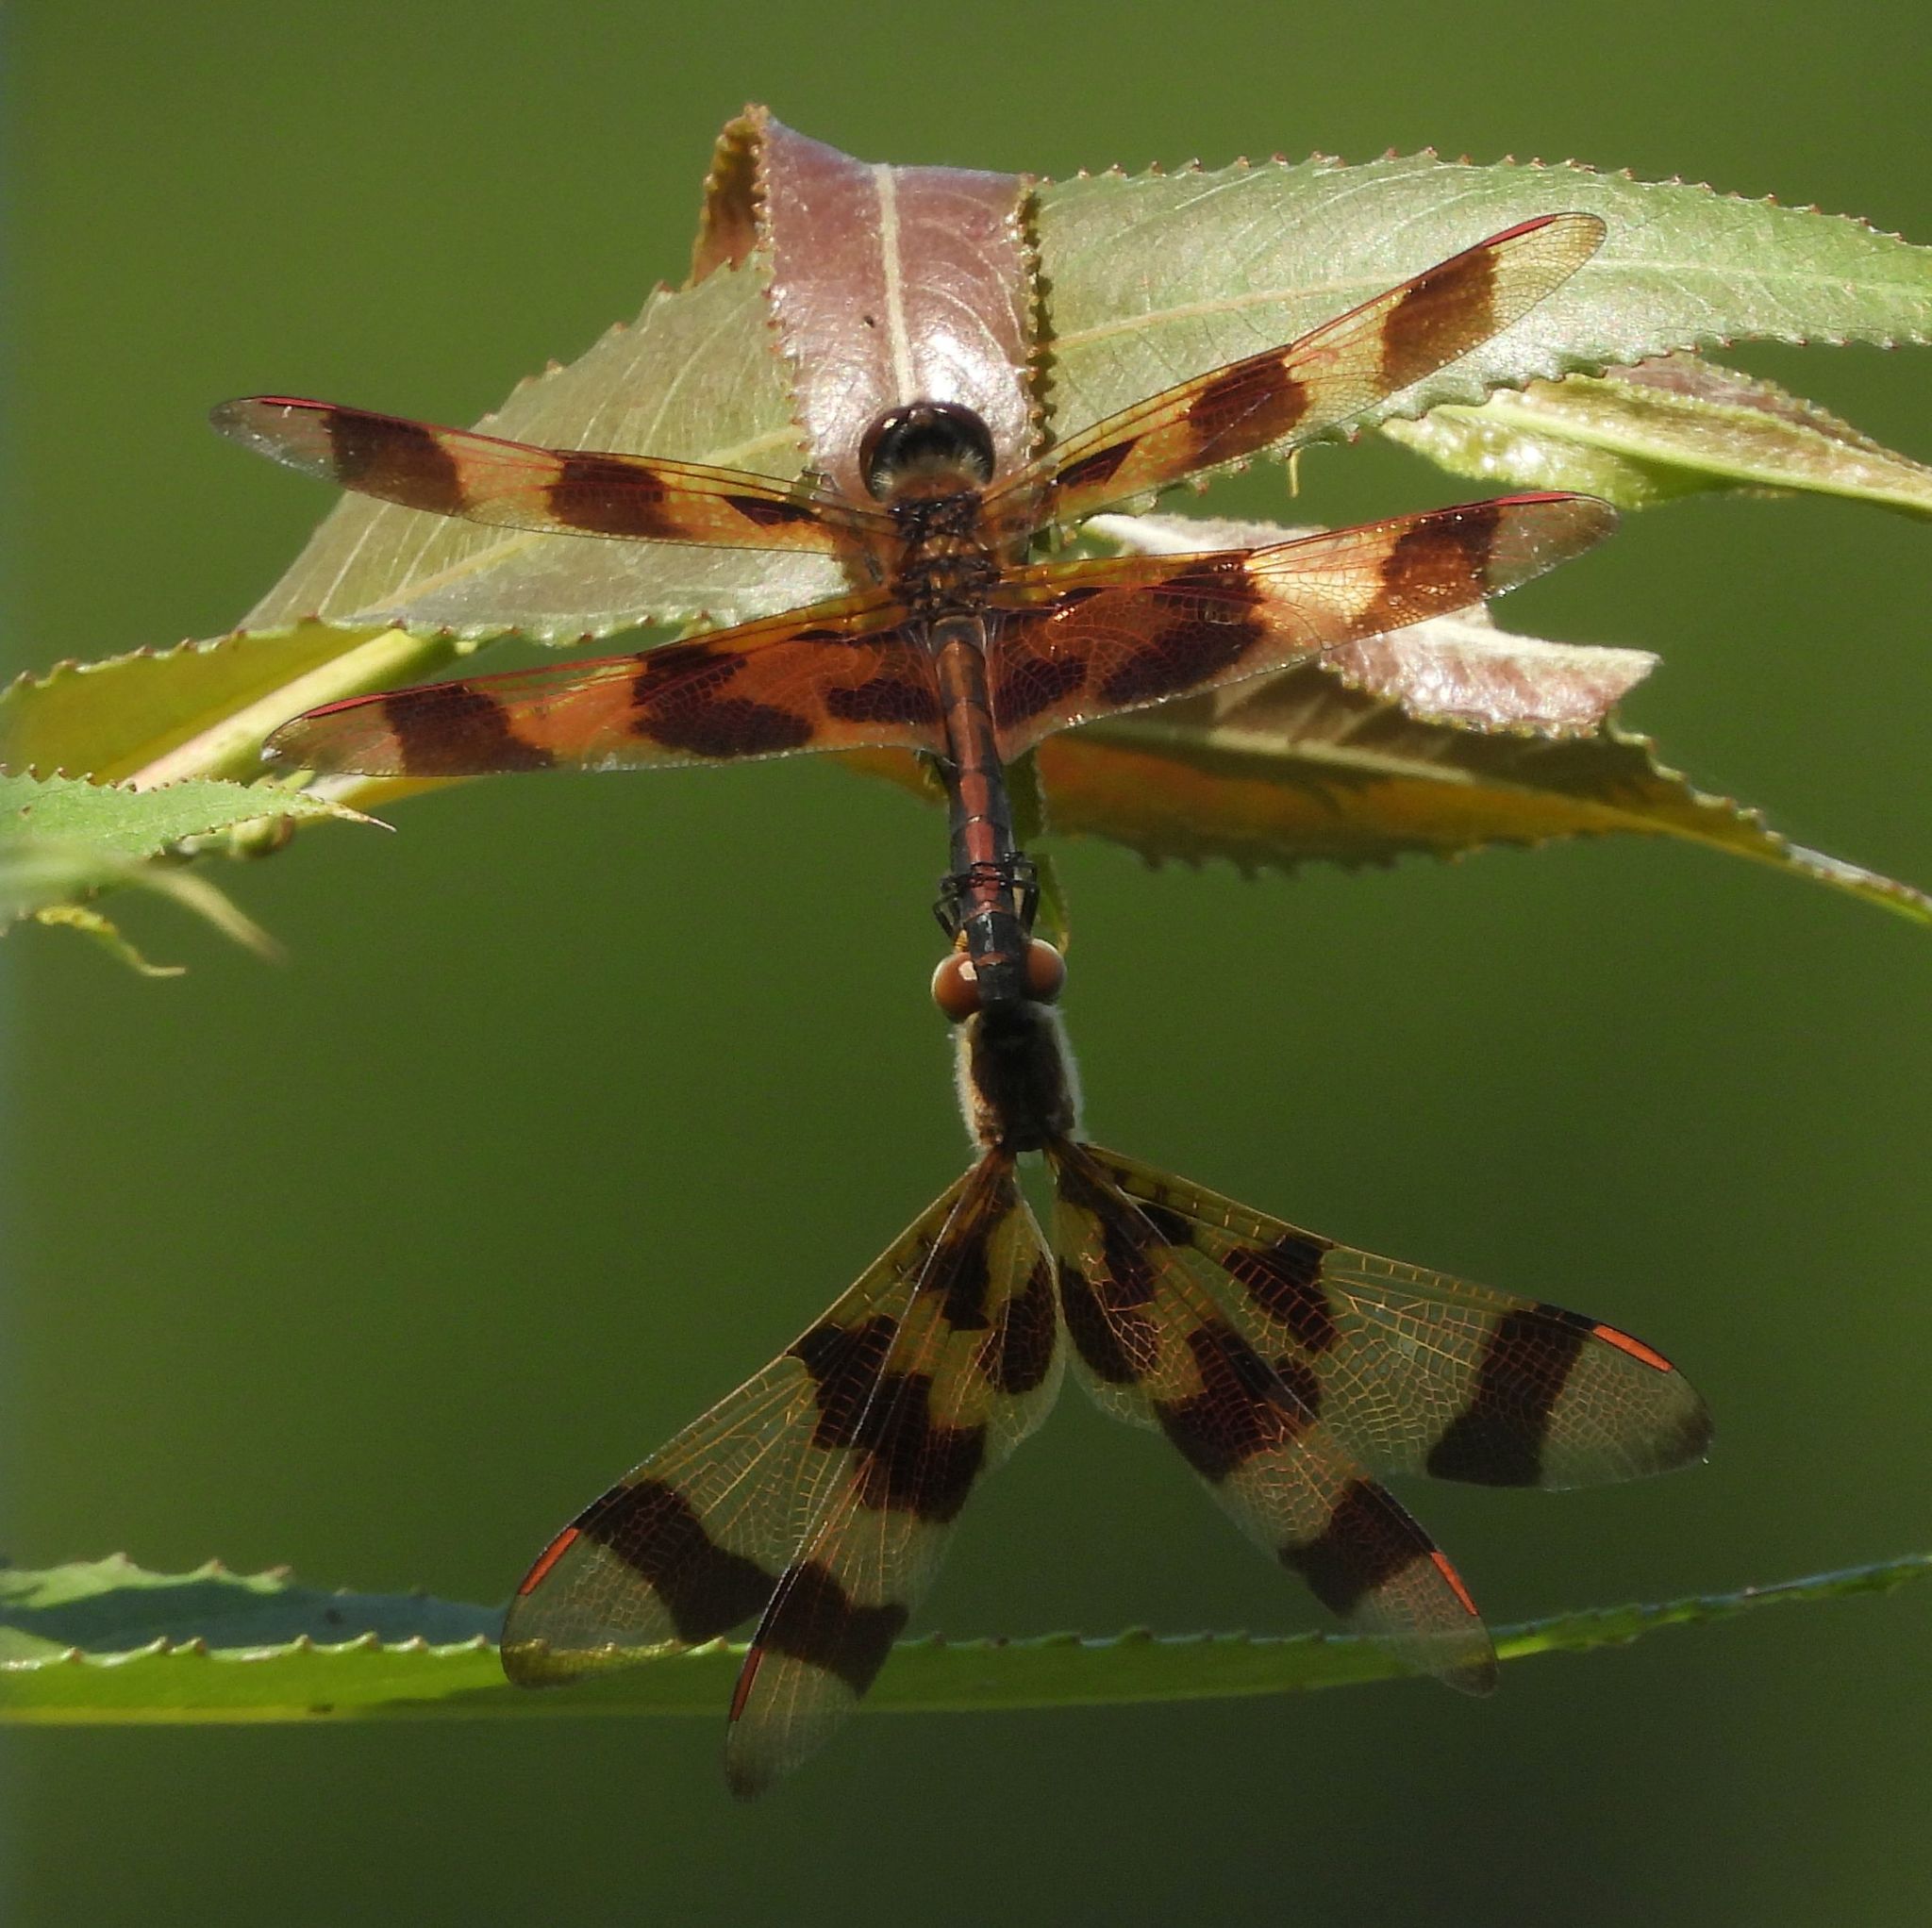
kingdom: Animalia
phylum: Arthropoda
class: Insecta
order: Odonata
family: Libellulidae
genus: Celithemis
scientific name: Celithemis eponina
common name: Halloween pennant
